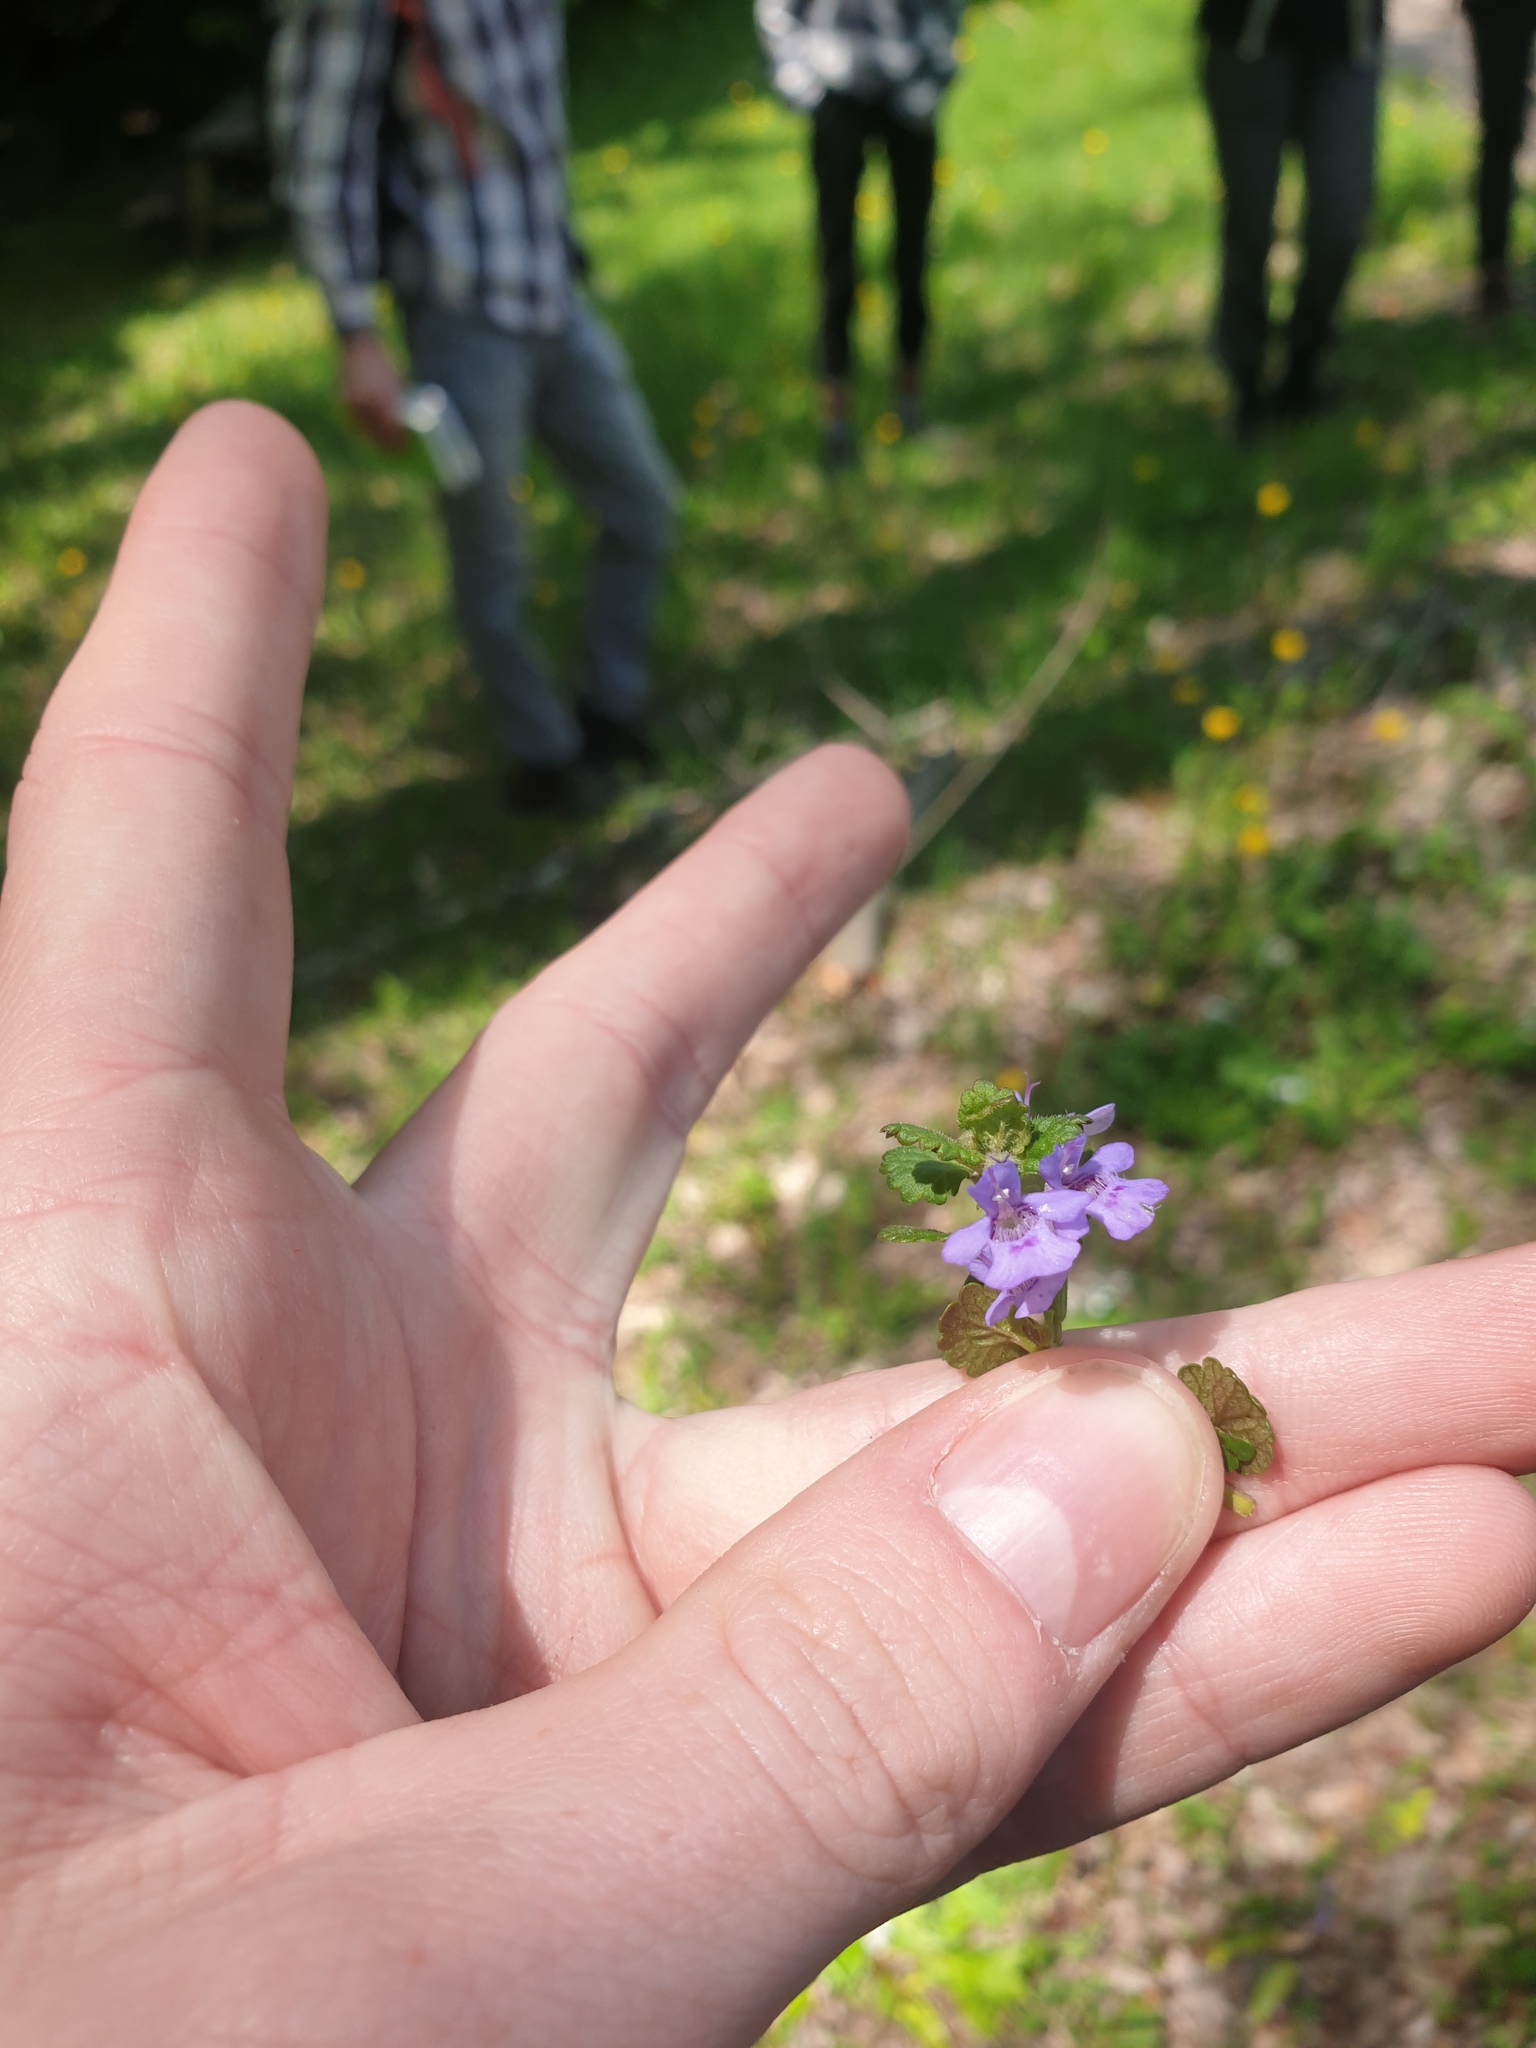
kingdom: Plantae
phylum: Tracheophyta
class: Magnoliopsida
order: Lamiales
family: Lamiaceae
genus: Glechoma
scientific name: Glechoma hederacea
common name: Ground ivy
